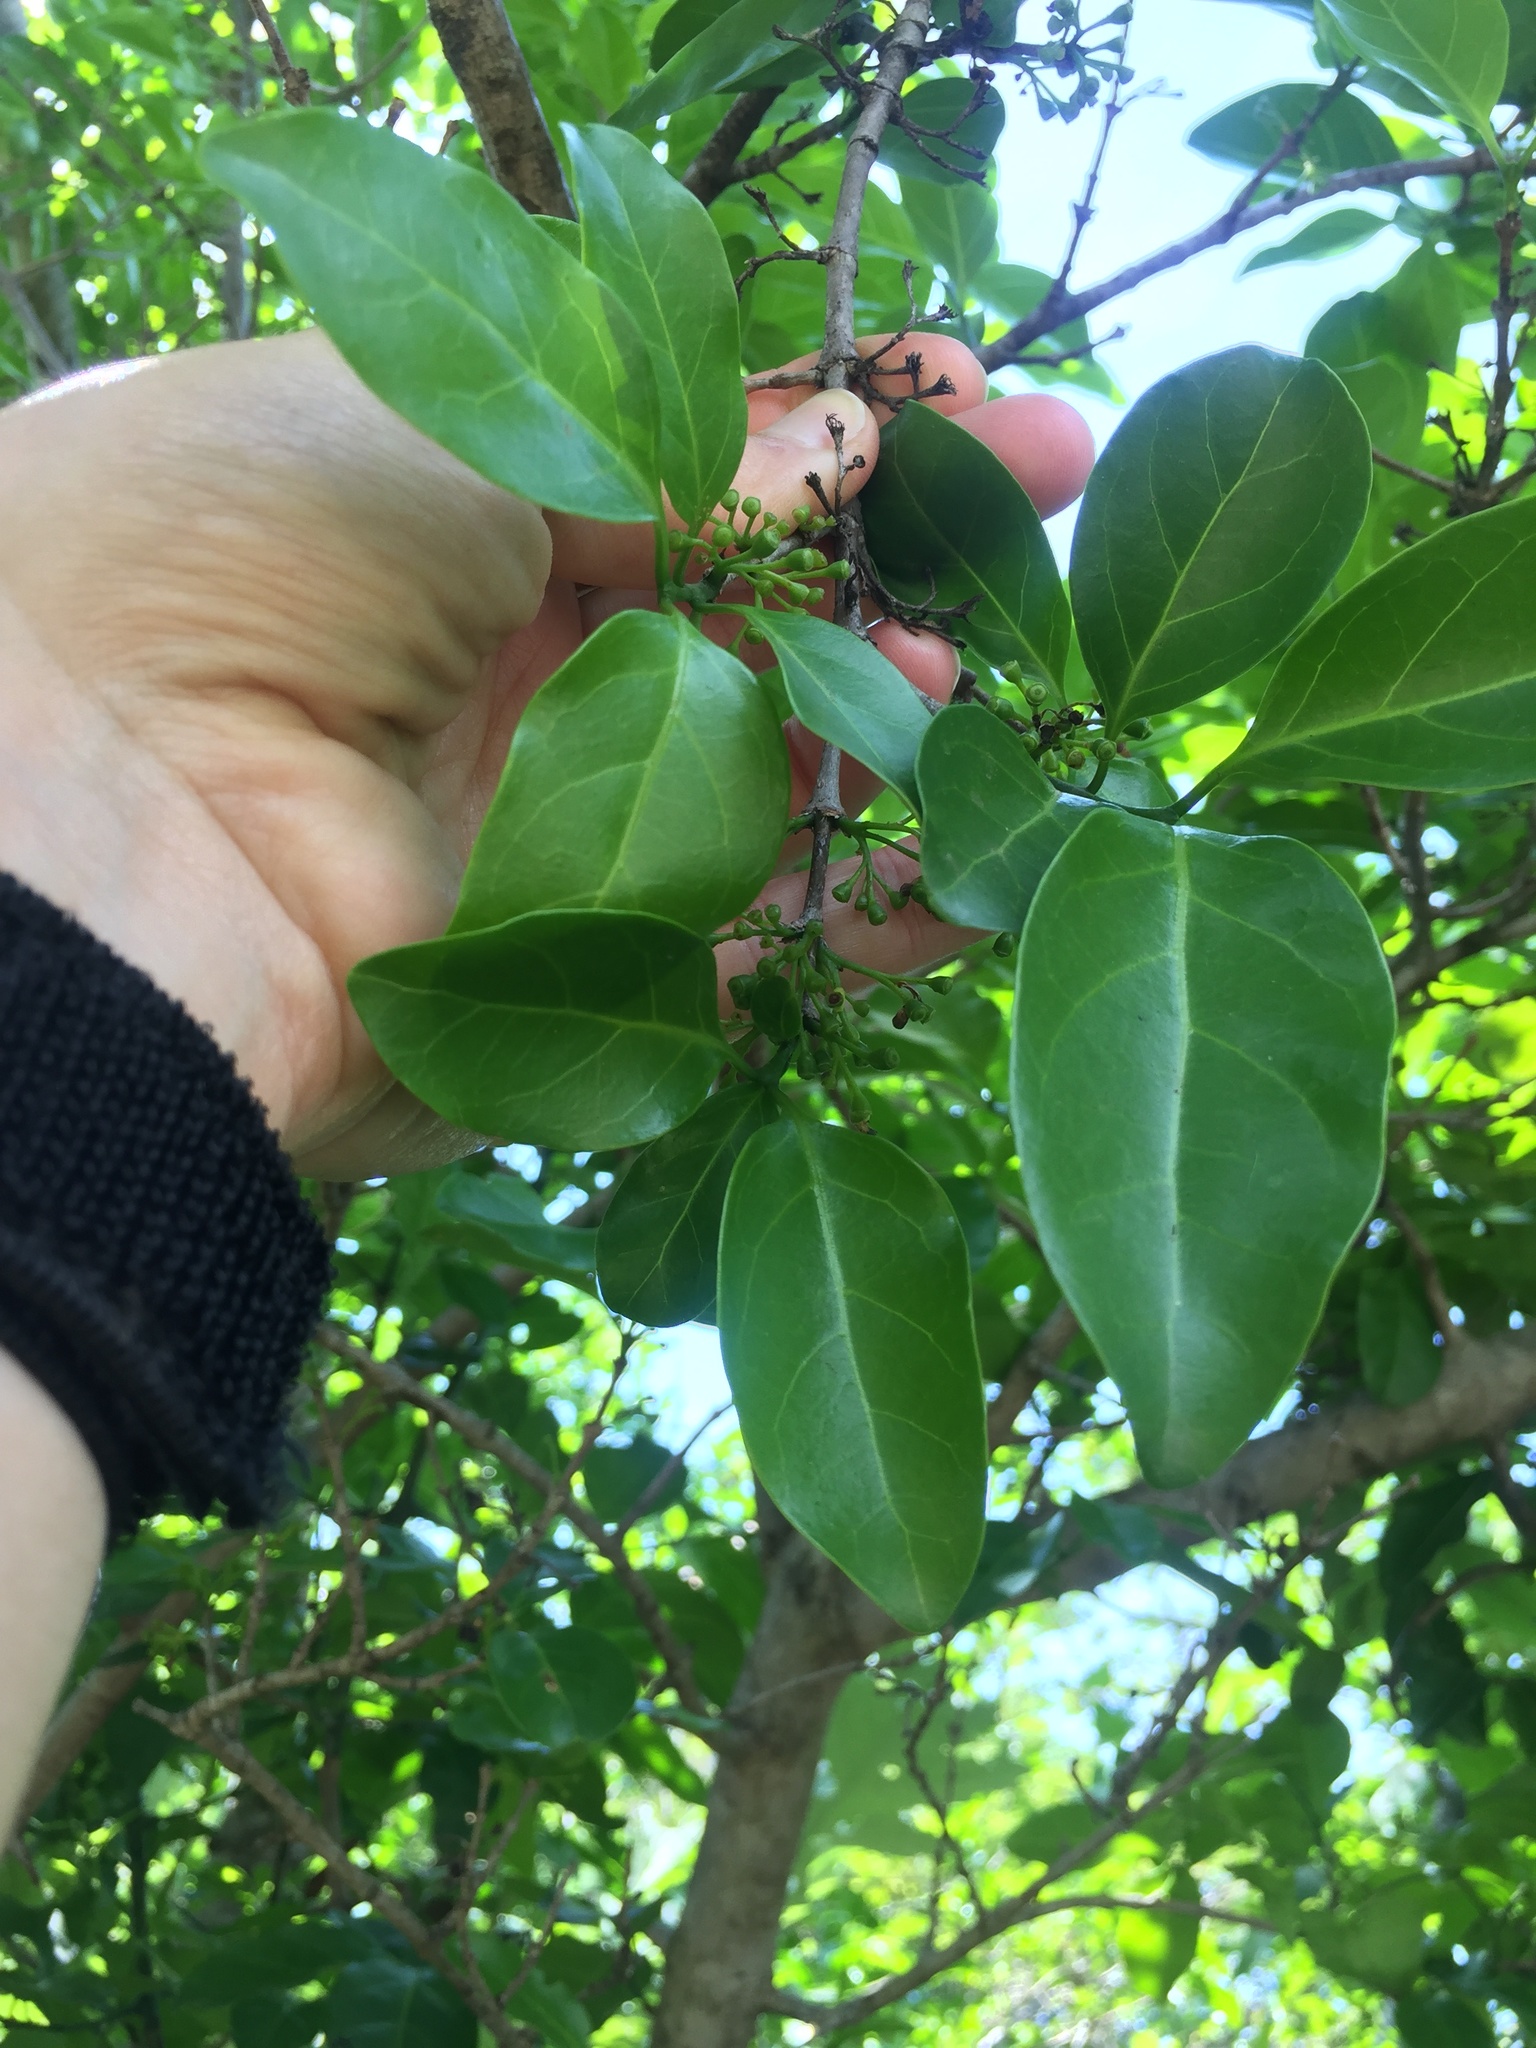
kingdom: Plantae
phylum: Tracheophyta
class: Magnoliopsida
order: Gentianales
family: Rubiaceae
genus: Canthium
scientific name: Canthium inerme
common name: Unarmed turkey-berry
